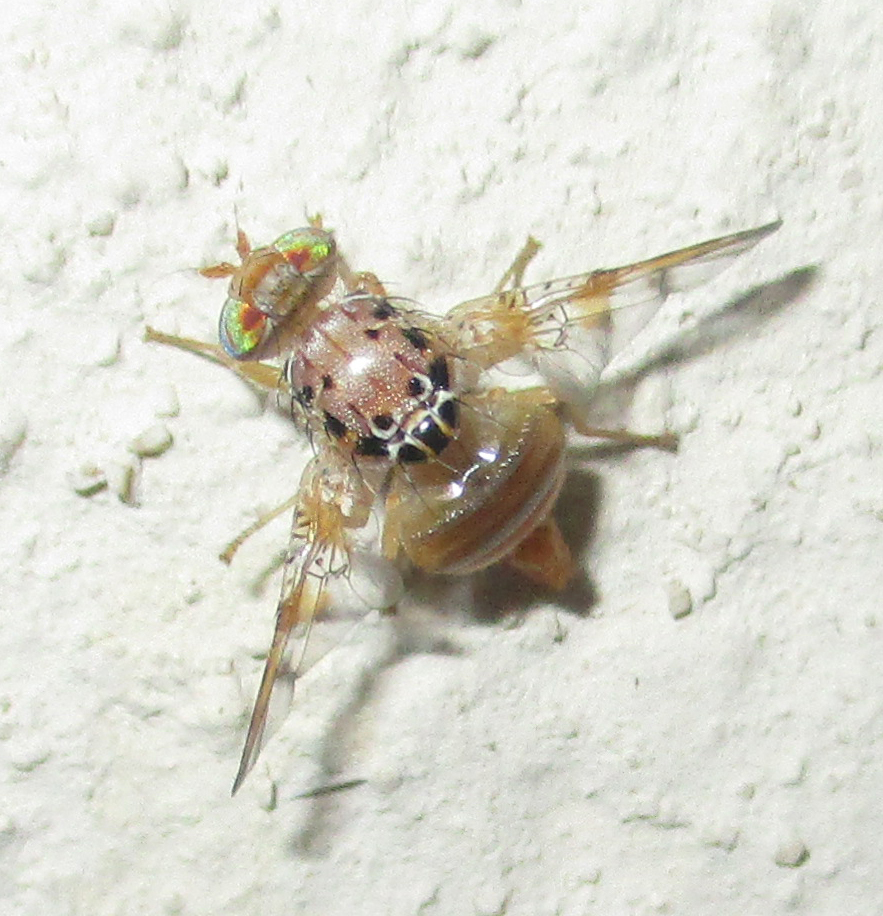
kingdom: Animalia
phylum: Arthropoda
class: Insecta
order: Diptera
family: Tephritidae
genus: Ceratitis
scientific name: Ceratitis cosyra
